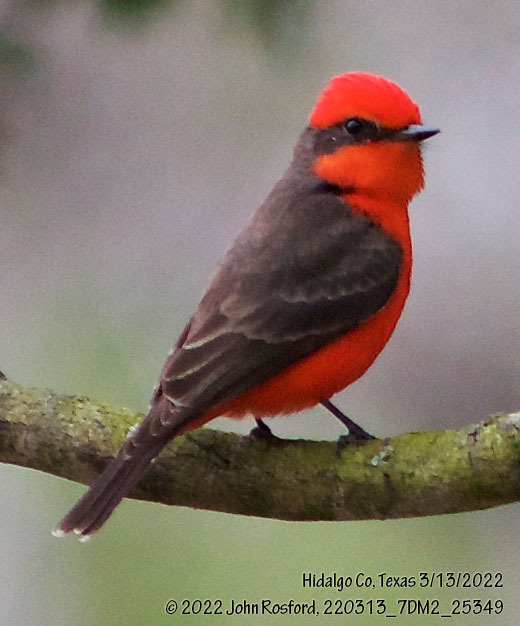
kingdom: Animalia
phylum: Chordata
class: Aves
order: Passeriformes
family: Tyrannidae
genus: Pyrocephalus
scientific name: Pyrocephalus rubinus
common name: Vermilion flycatcher
